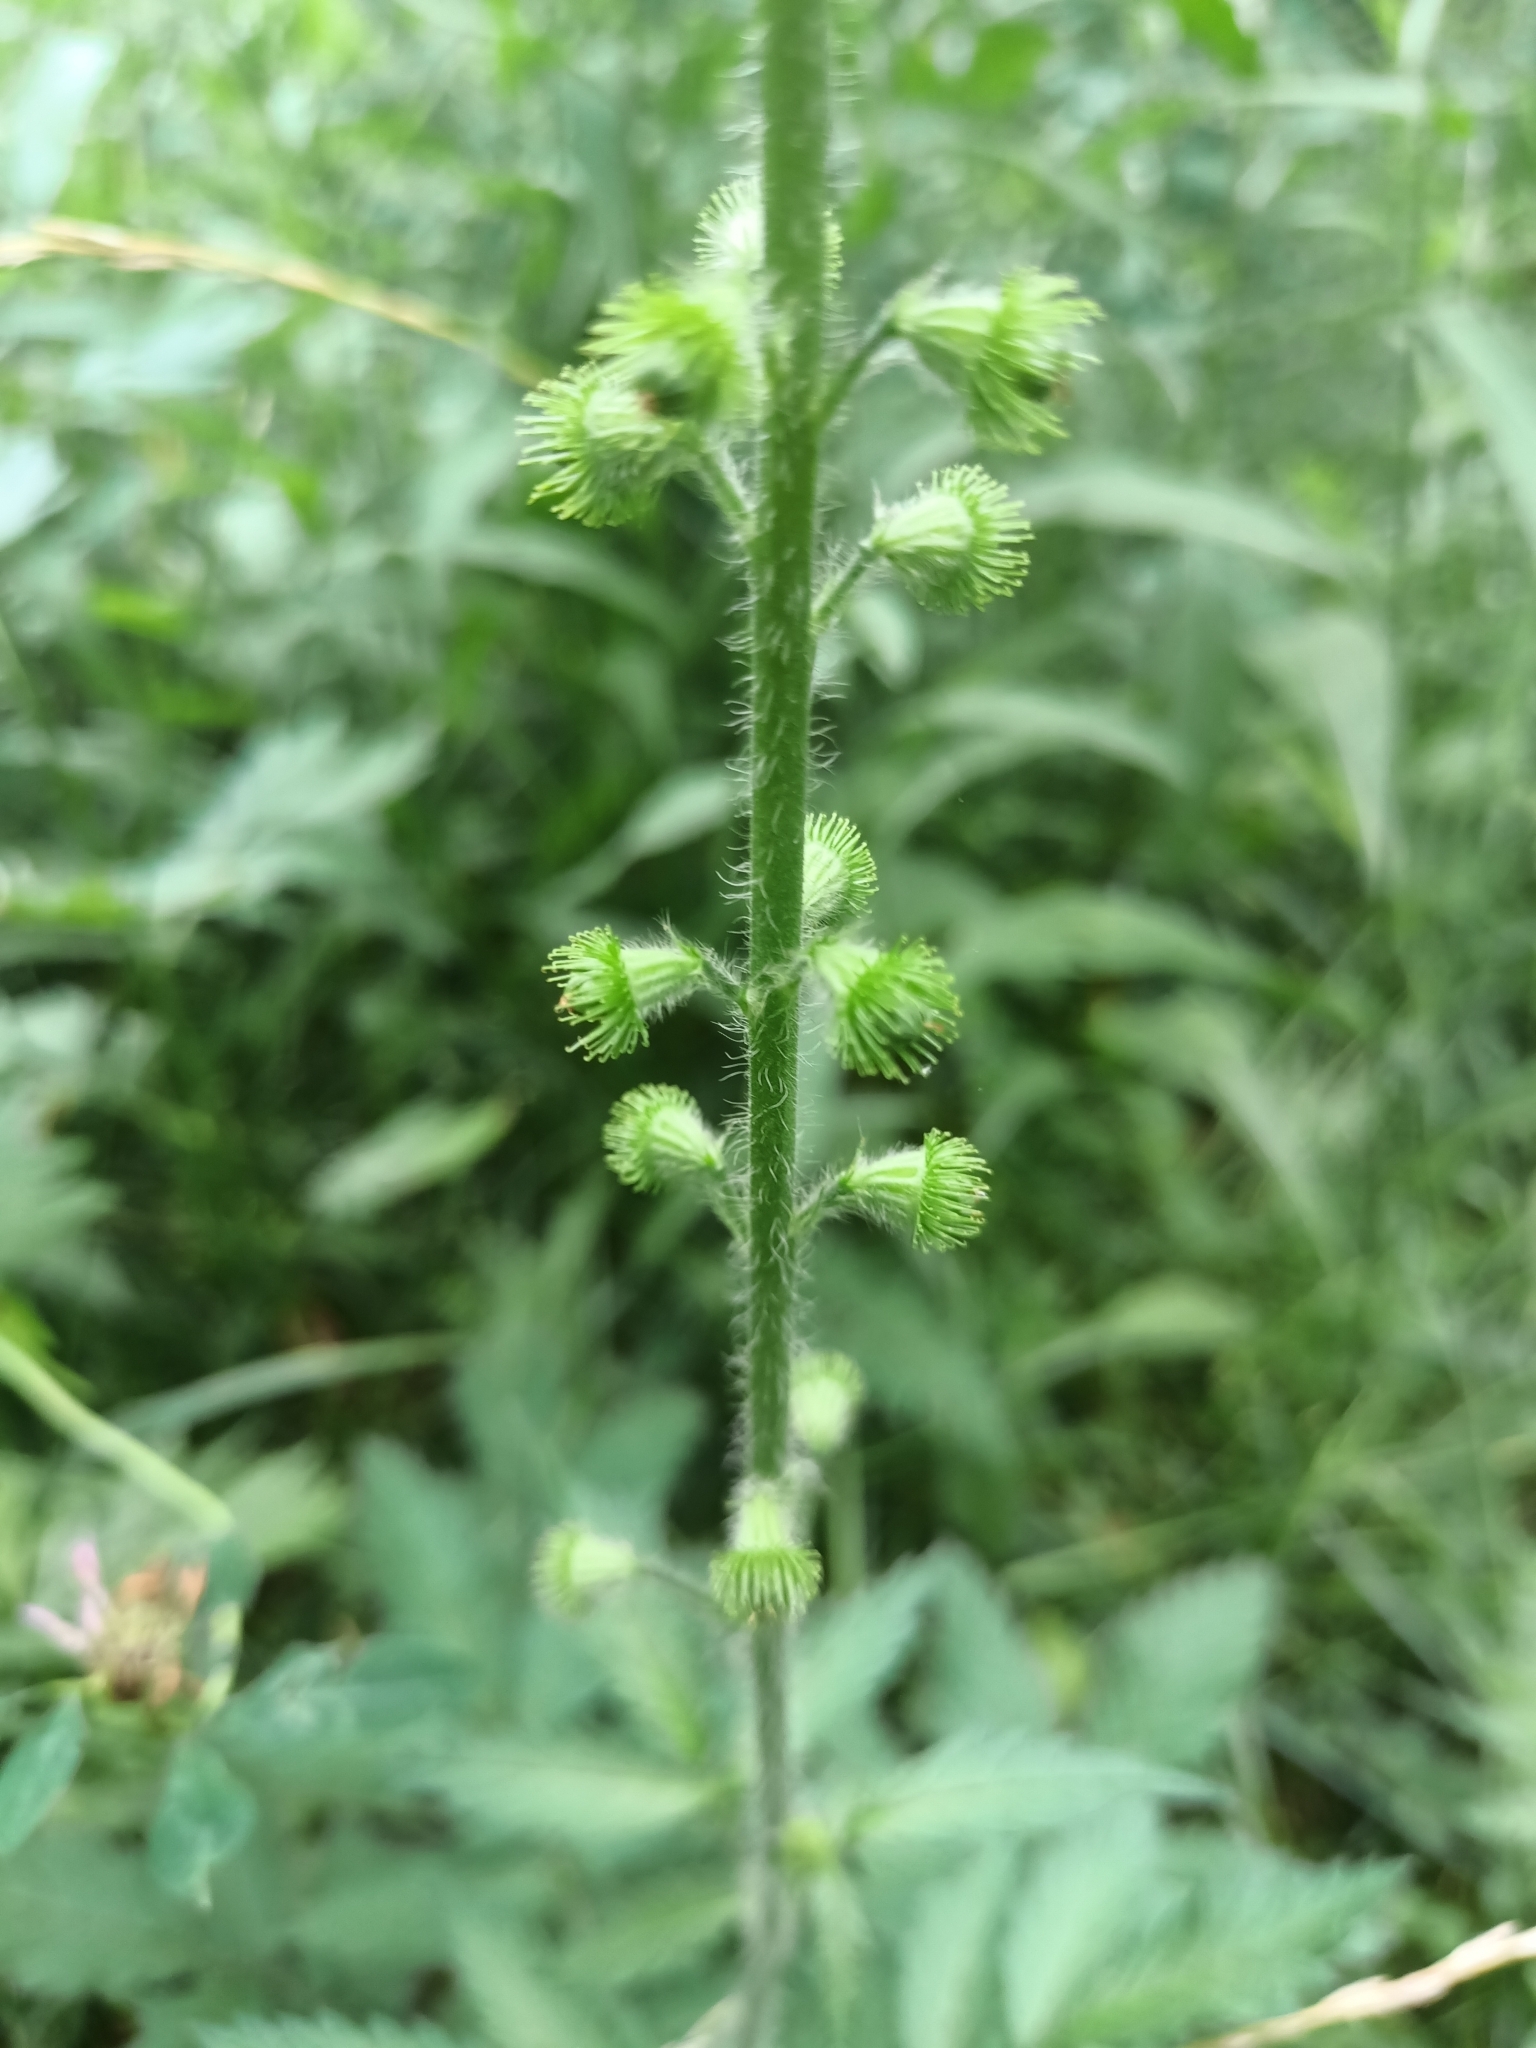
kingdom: Plantae
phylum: Tracheophyta
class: Magnoliopsida
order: Rosales
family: Rosaceae
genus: Agrimonia
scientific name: Agrimonia eupatoria
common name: Agrimony
